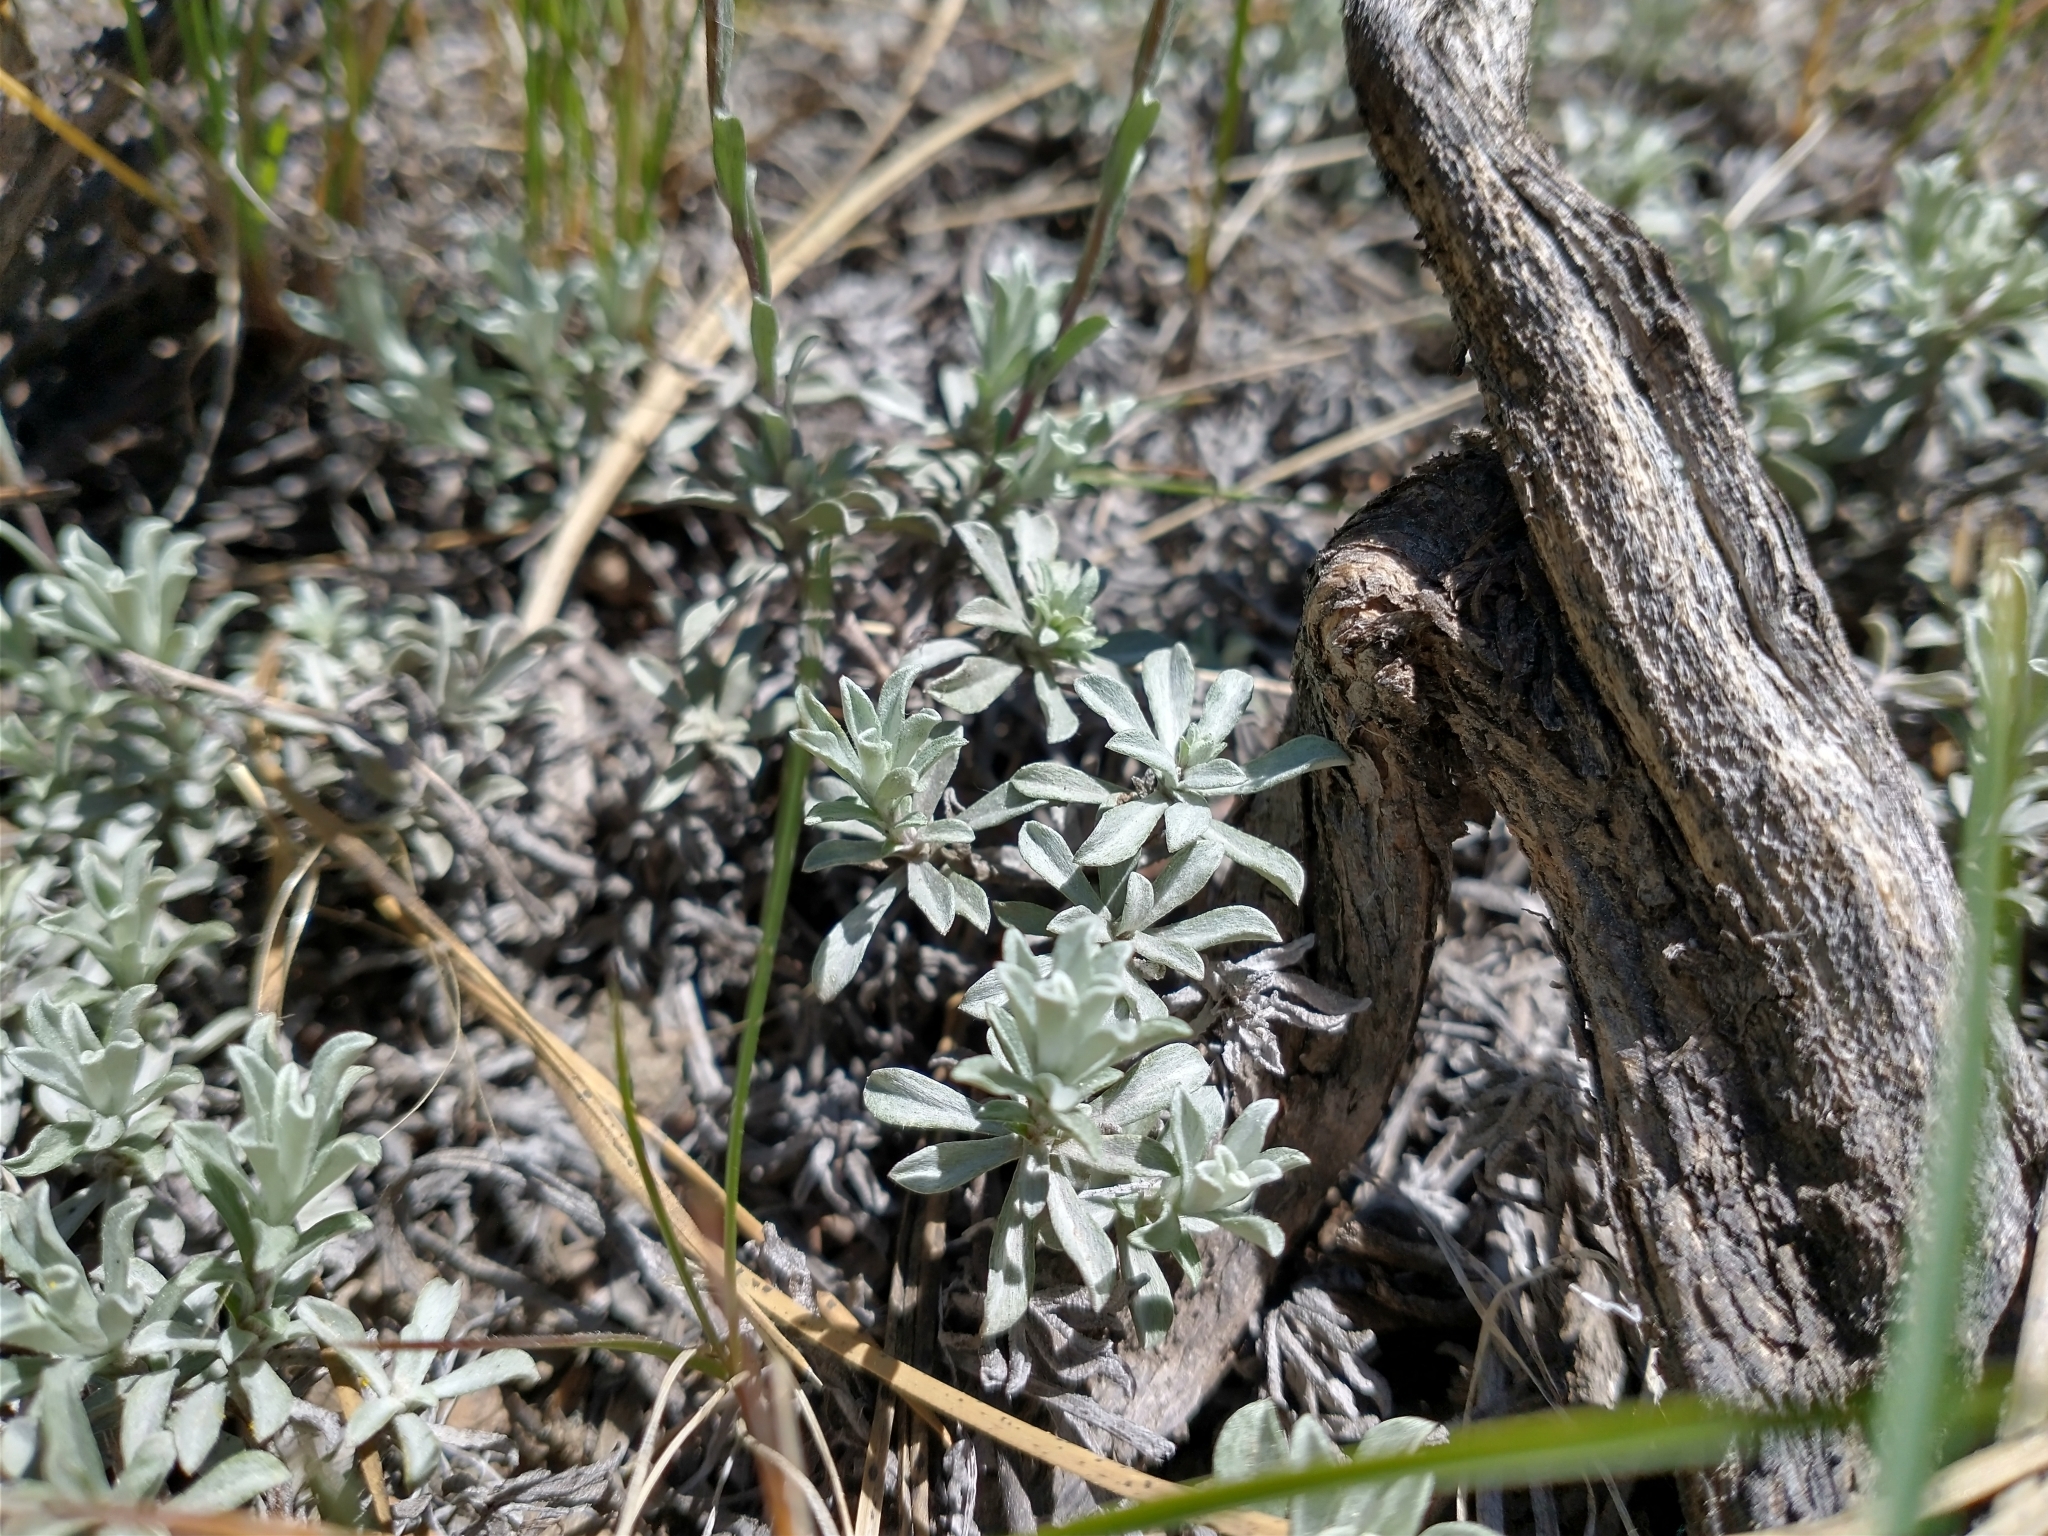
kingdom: Plantae
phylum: Tracheophyta
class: Magnoliopsida
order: Asterales
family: Asteraceae
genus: Antennaria
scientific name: Antennaria umbrinella
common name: Brown pussytoes
